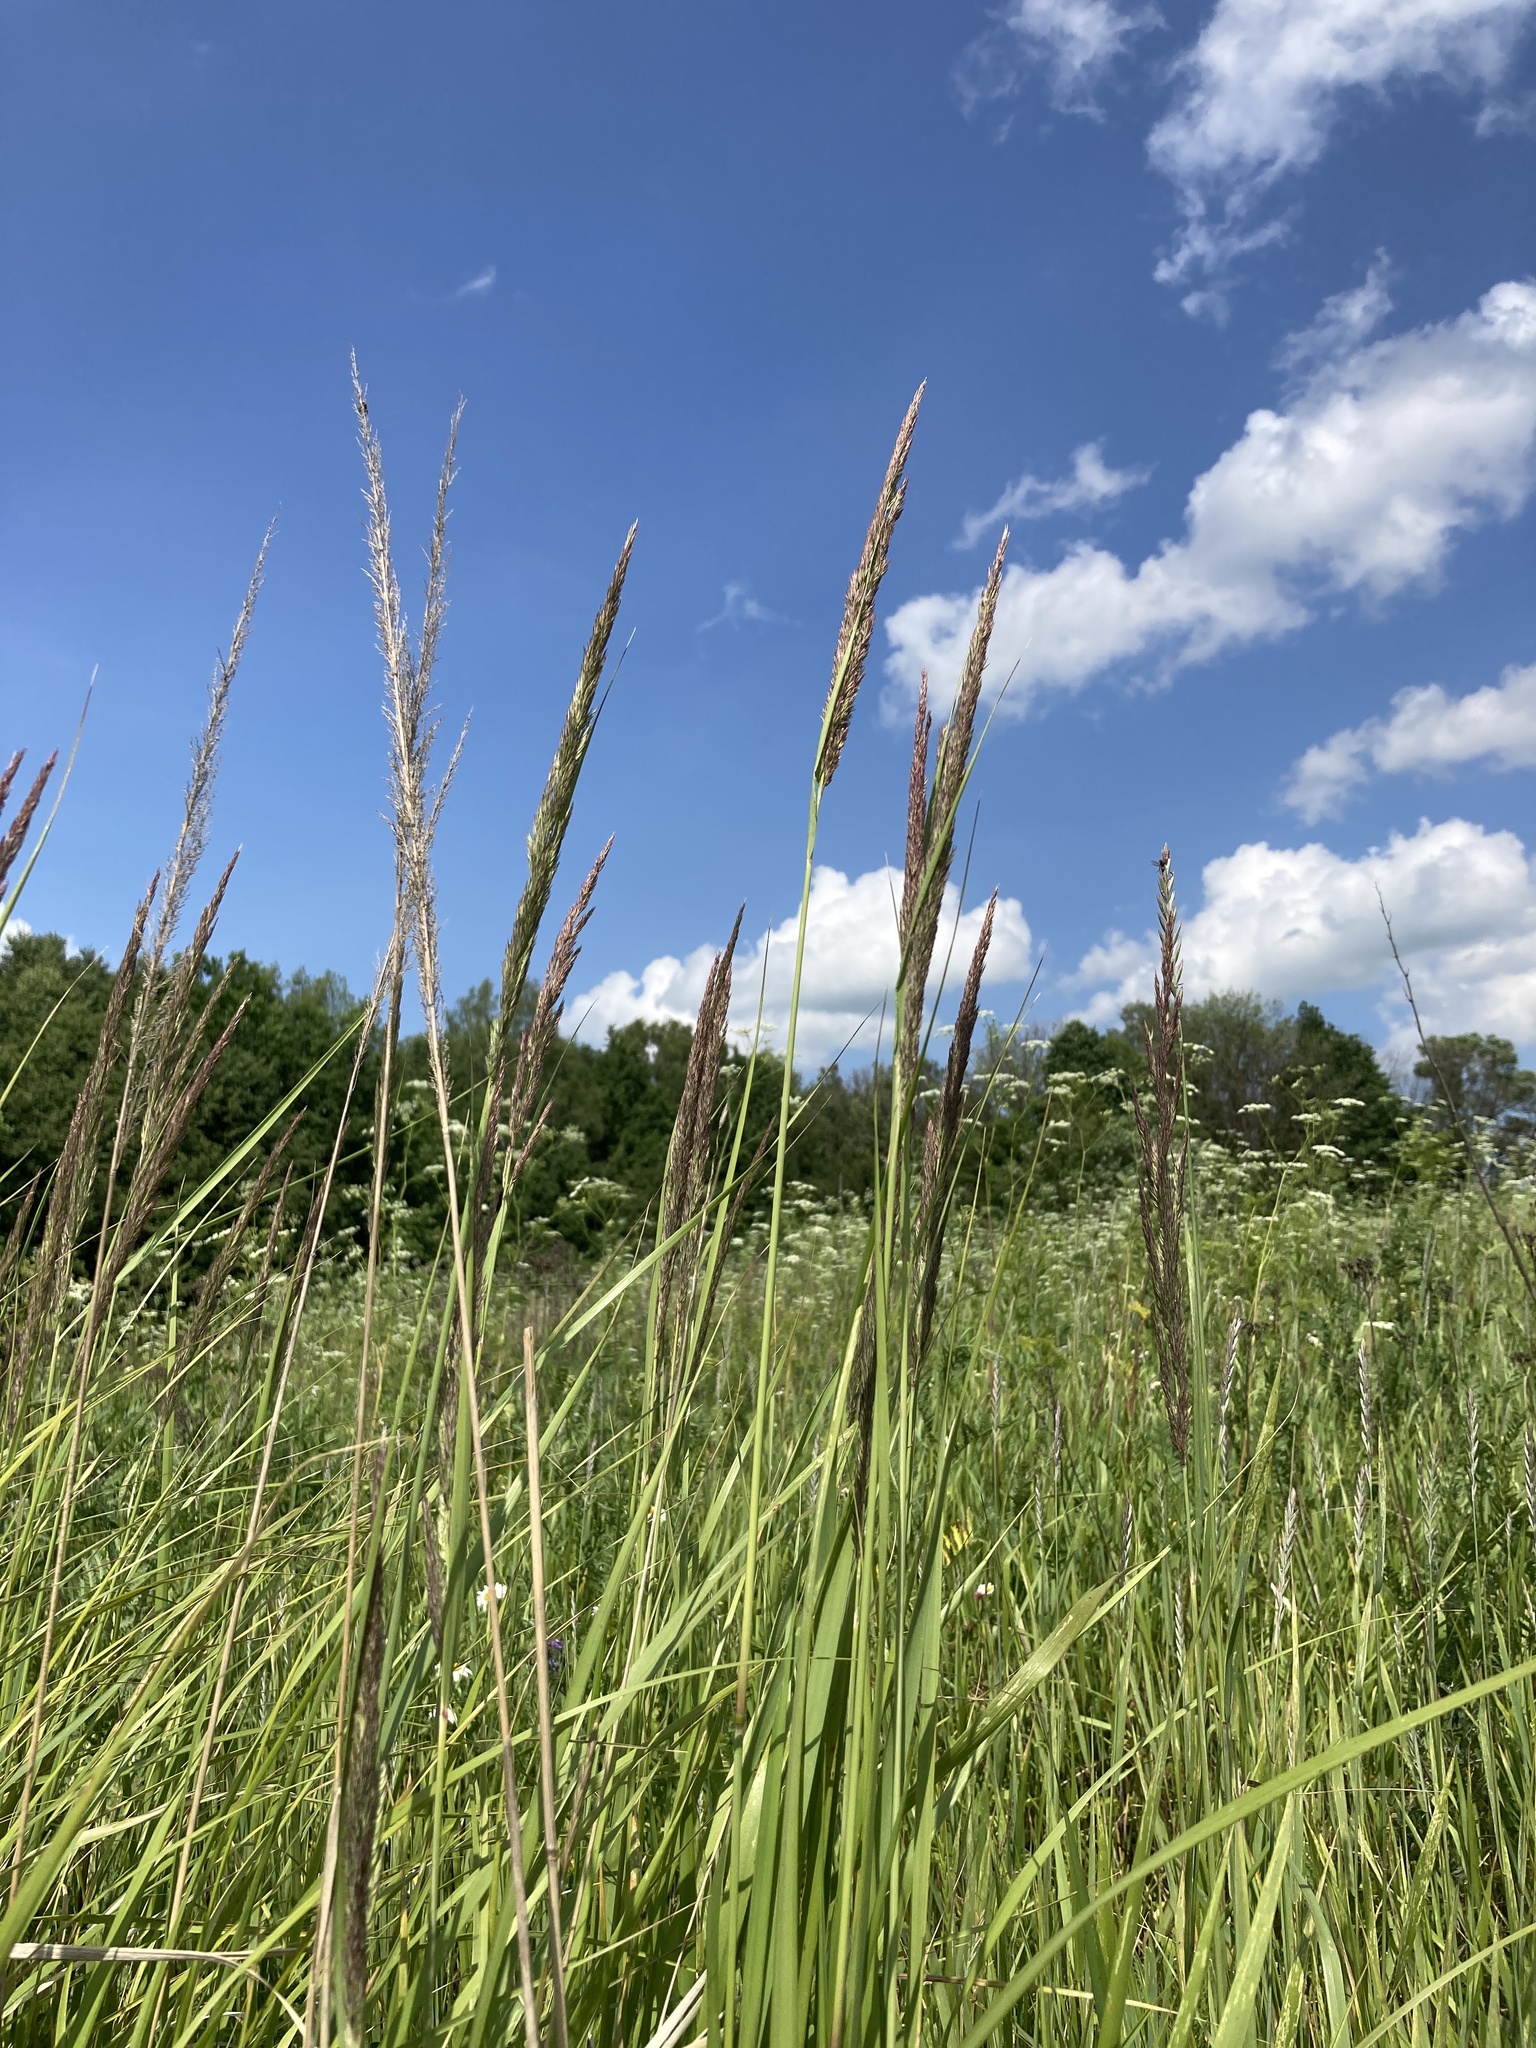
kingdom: Plantae
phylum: Tracheophyta
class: Liliopsida
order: Poales
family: Poaceae
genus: Calamagrostis
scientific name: Calamagrostis epigejos
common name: Wood small-reed
